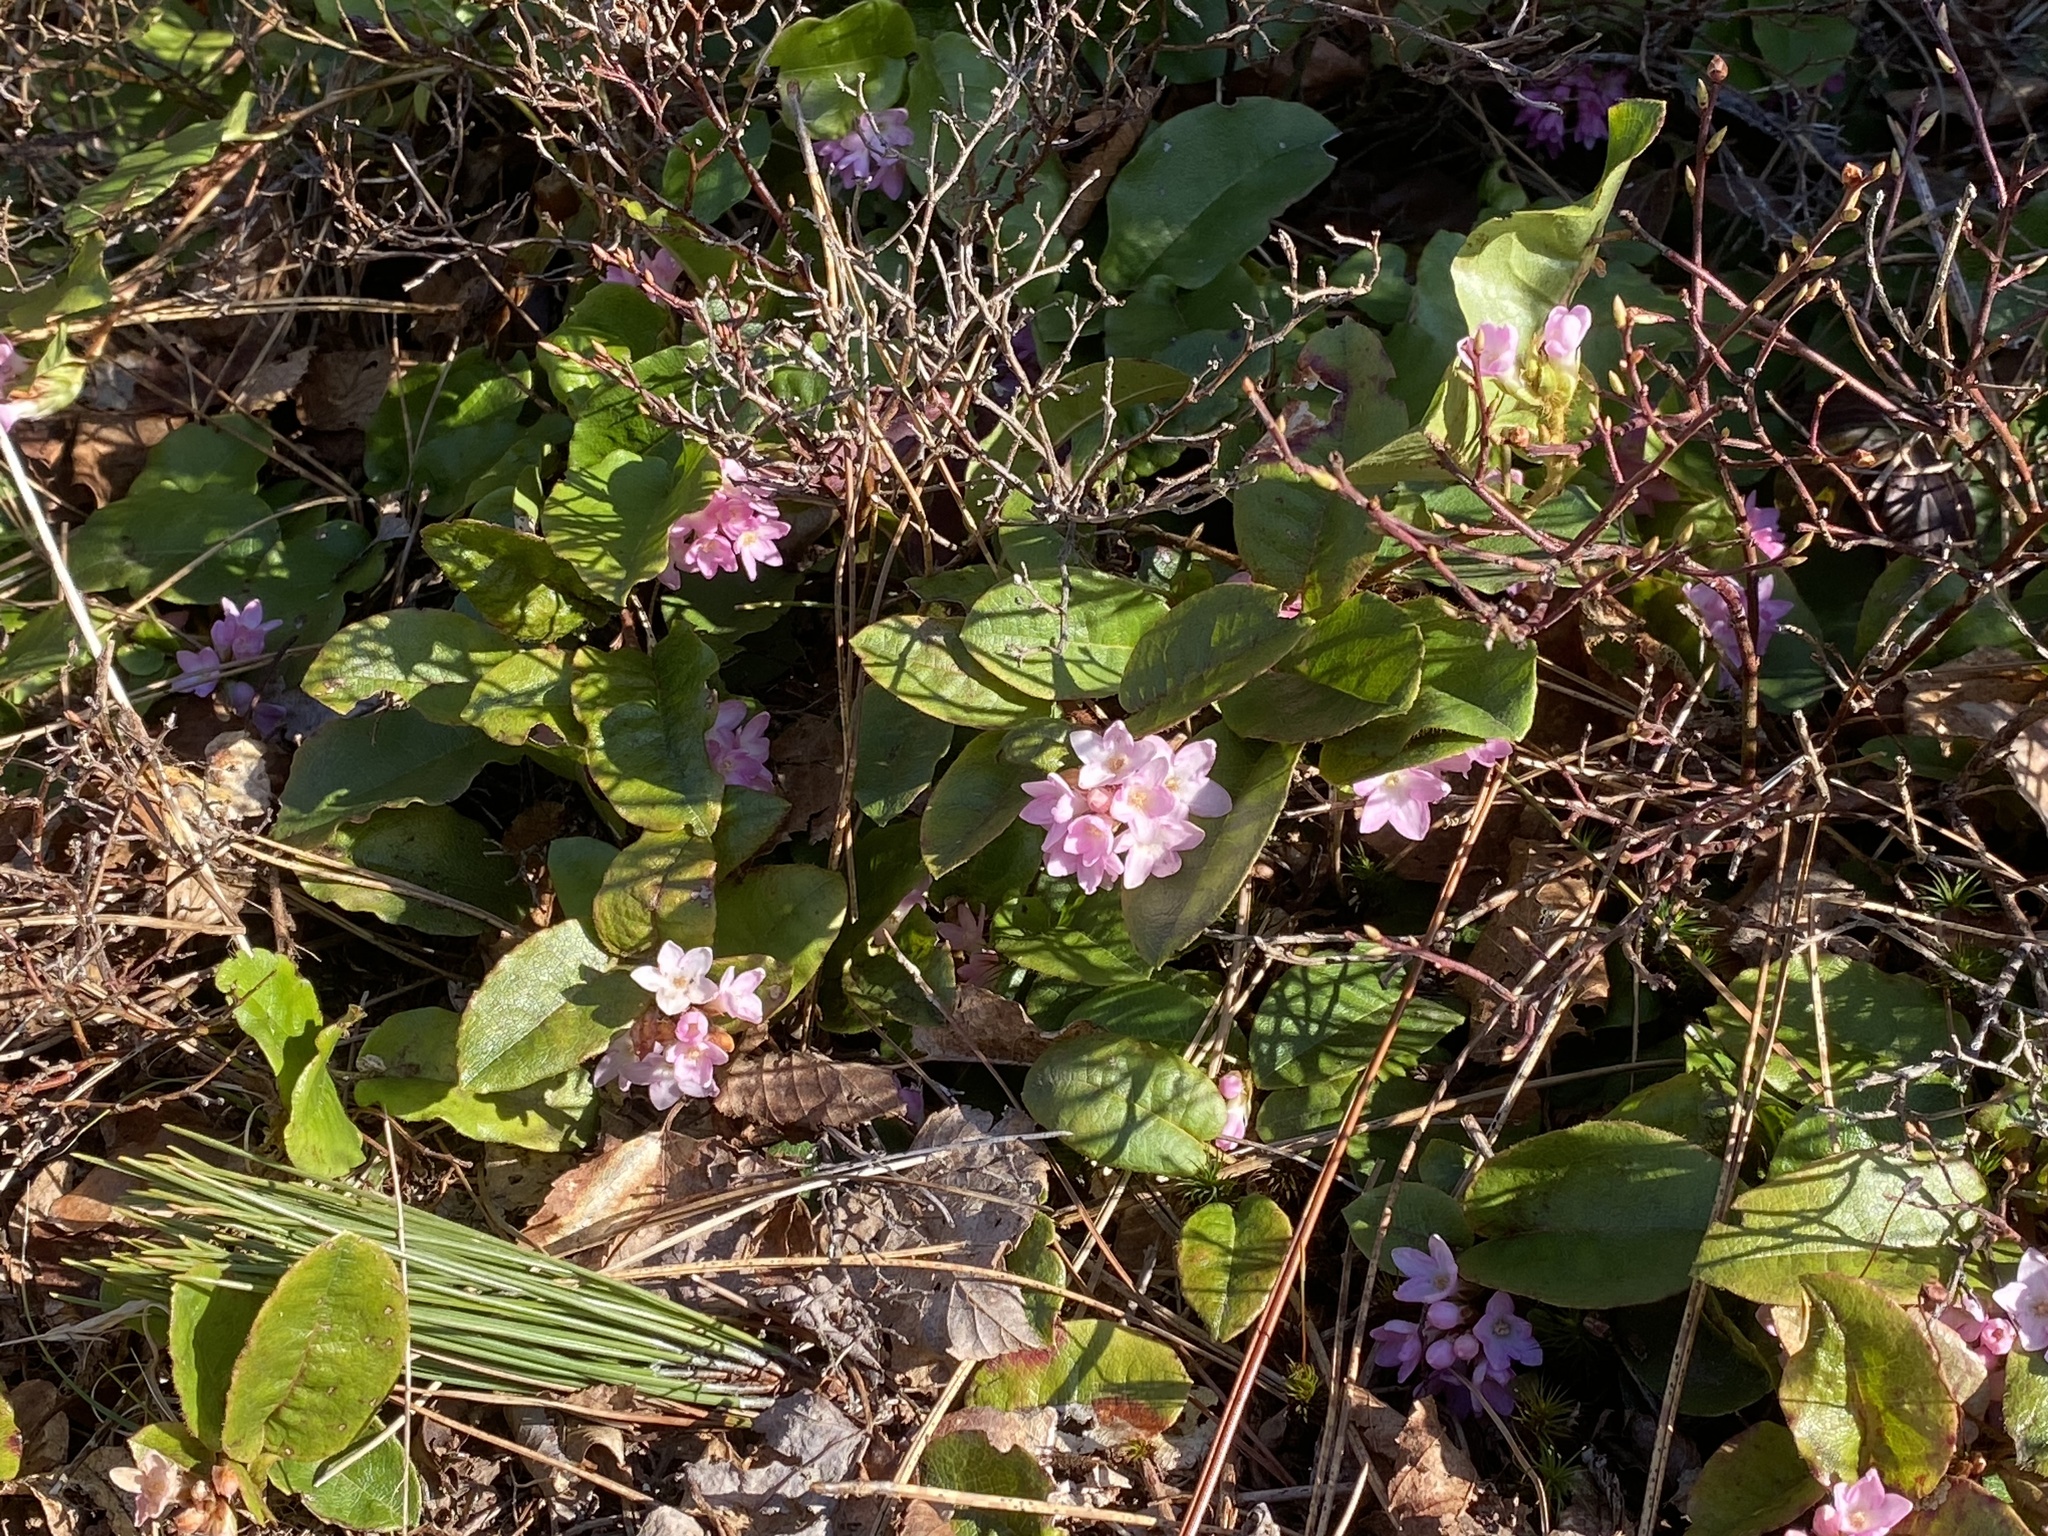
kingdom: Plantae
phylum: Tracheophyta
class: Magnoliopsida
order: Ericales
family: Ericaceae
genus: Epigaea
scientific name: Epigaea repens
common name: Gravelroot
